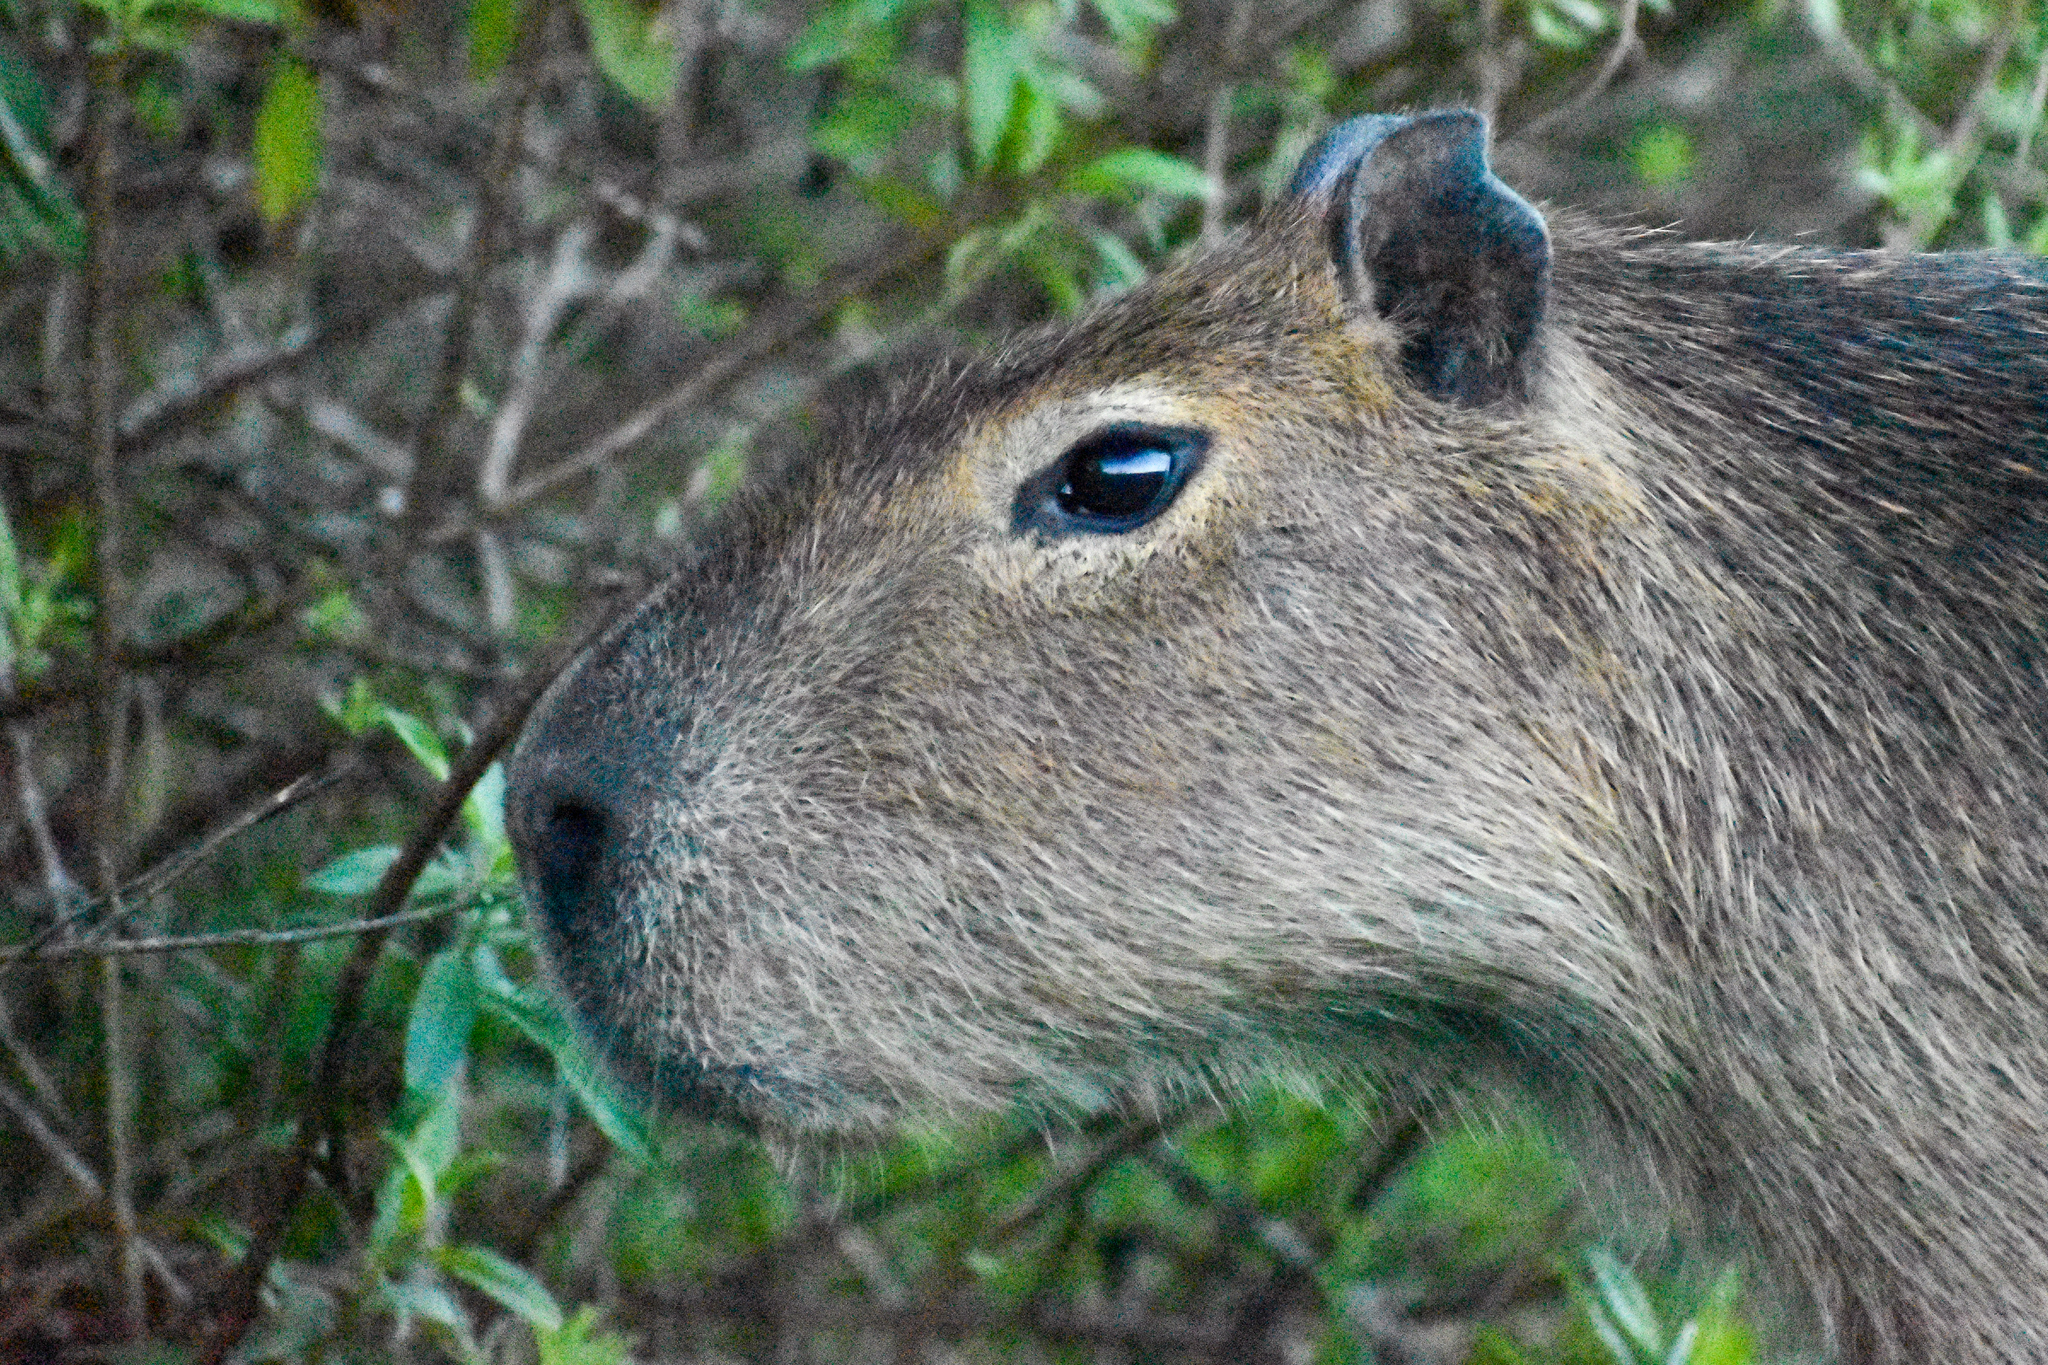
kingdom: Animalia
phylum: Chordata
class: Mammalia
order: Rodentia
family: Caviidae
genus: Hydrochoerus
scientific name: Hydrochoerus hydrochaeris
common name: Capybara
